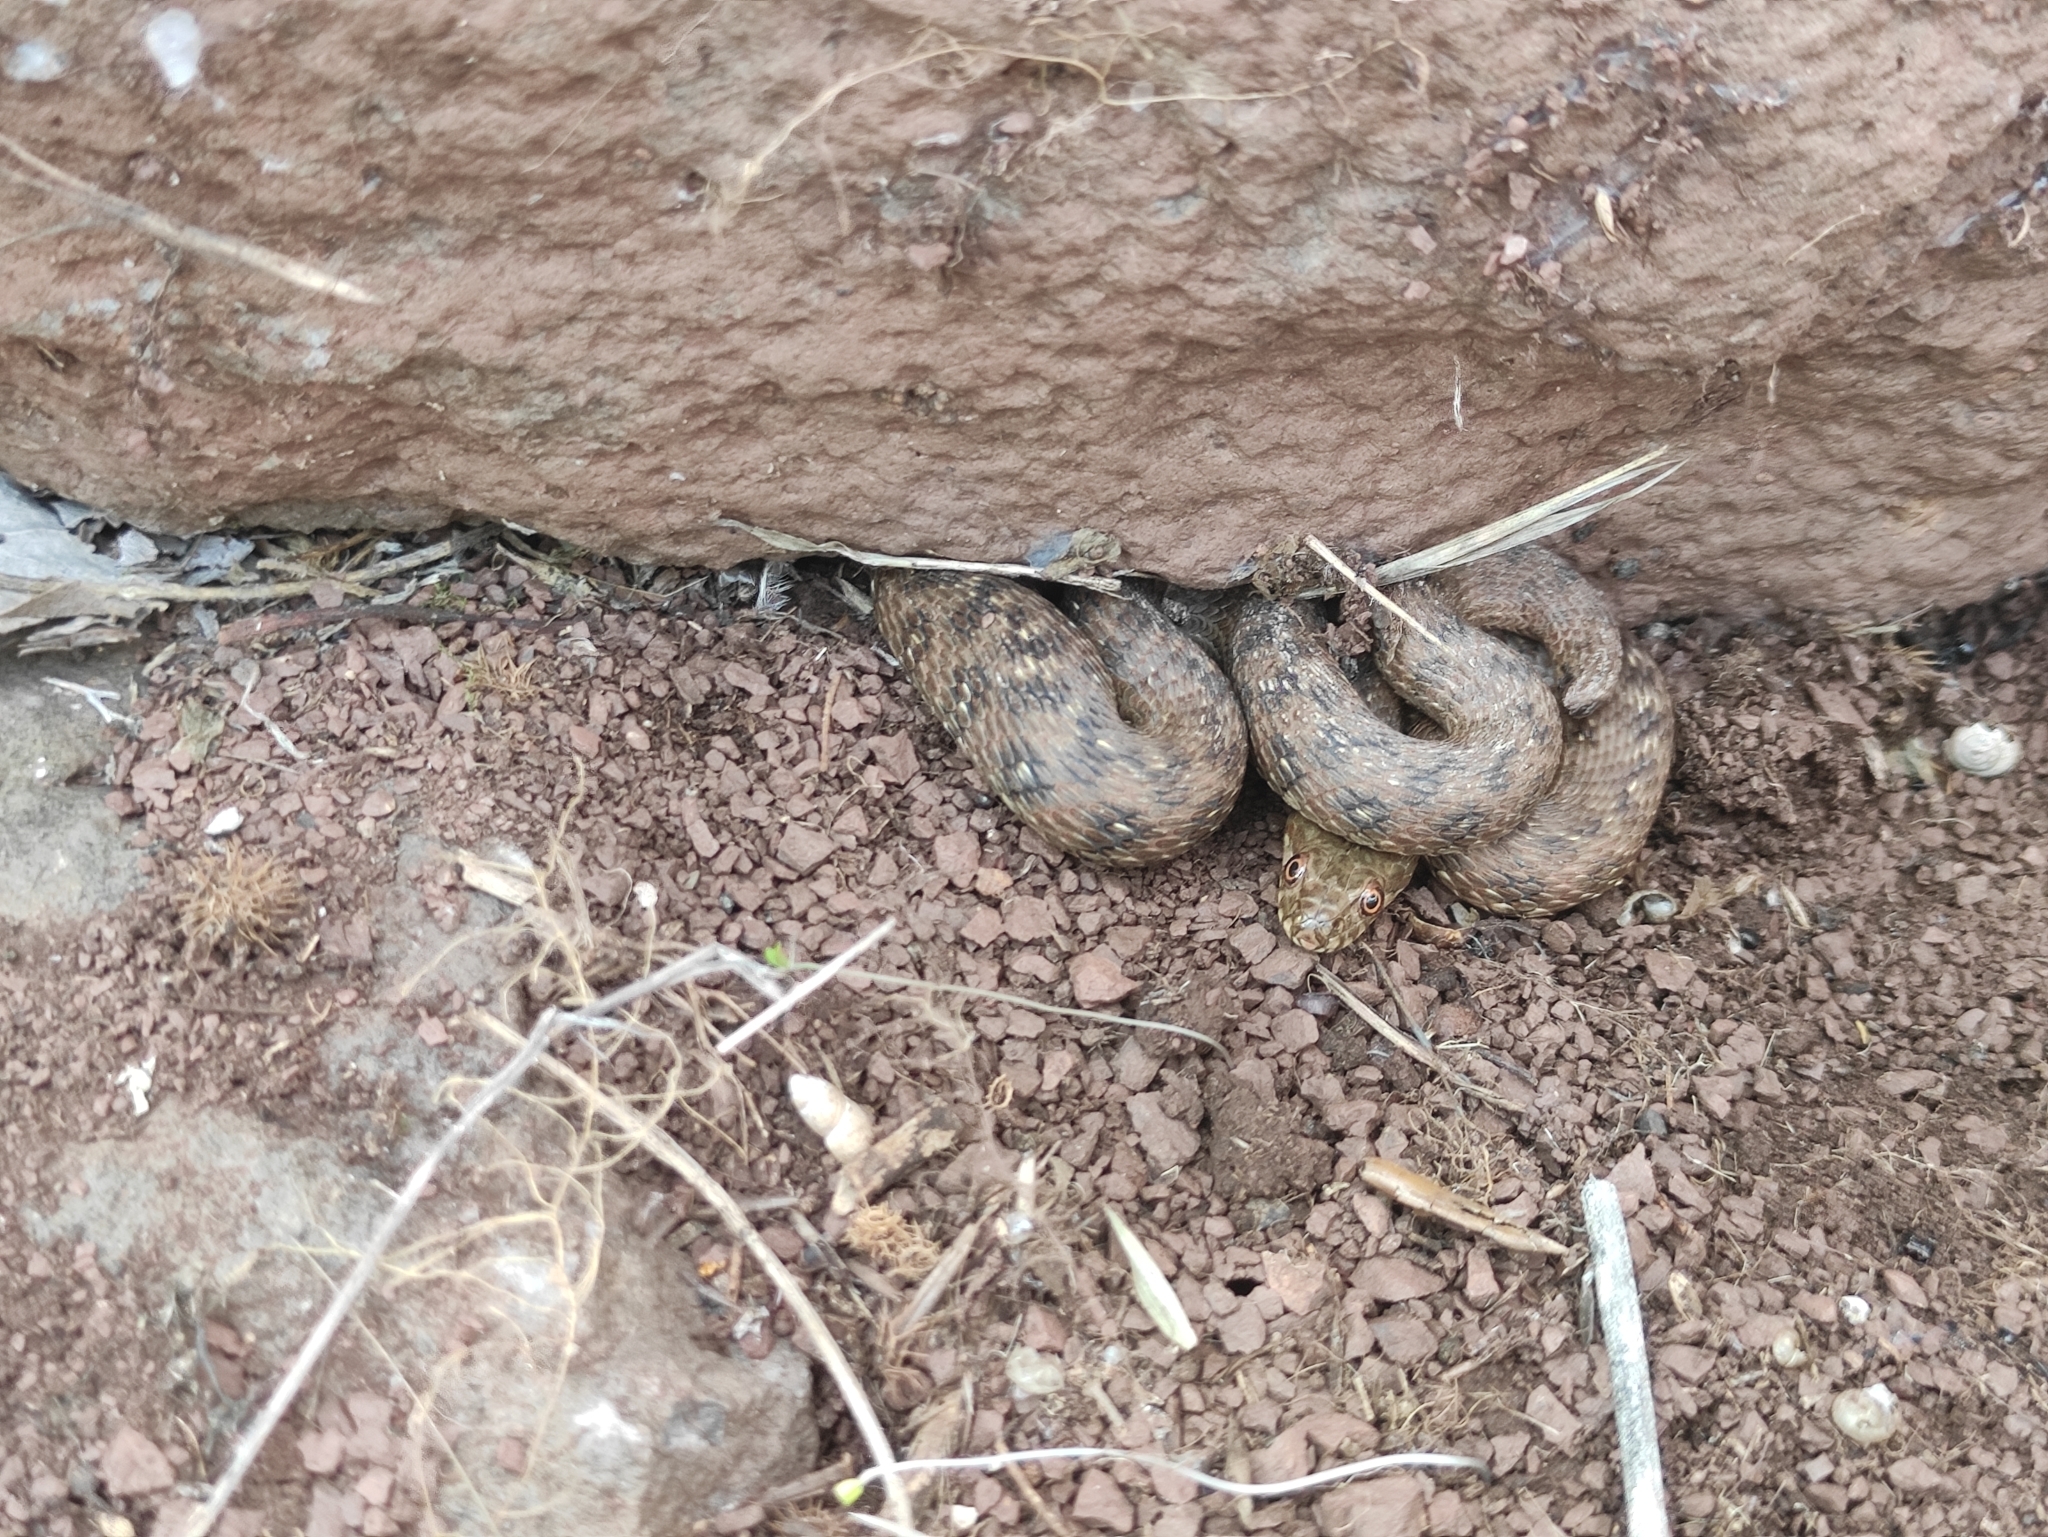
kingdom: Animalia
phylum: Chordata
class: Squamata
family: Colubridae
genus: Natrix
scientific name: Natrix maura
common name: Viperine water snake
